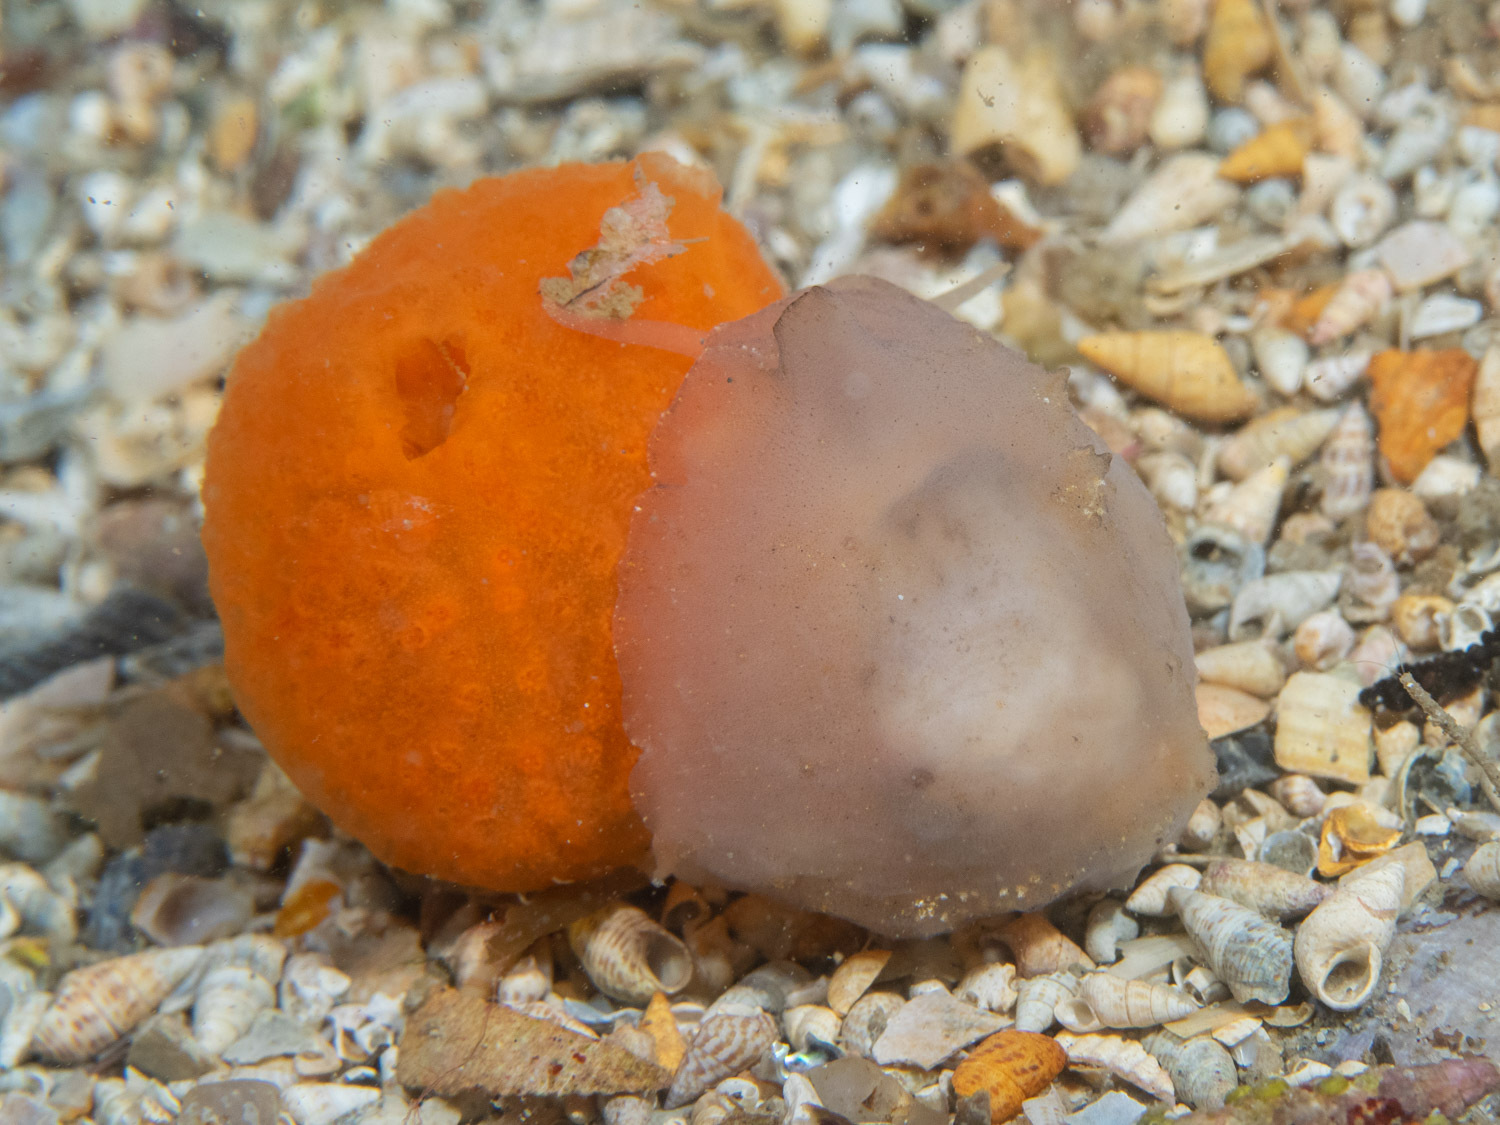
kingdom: Animalia
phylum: Mollusca
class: Gastropoda
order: Littorinimorpha
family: Velutinidae
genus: Lamellaria
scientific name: Lamellaria ophione
